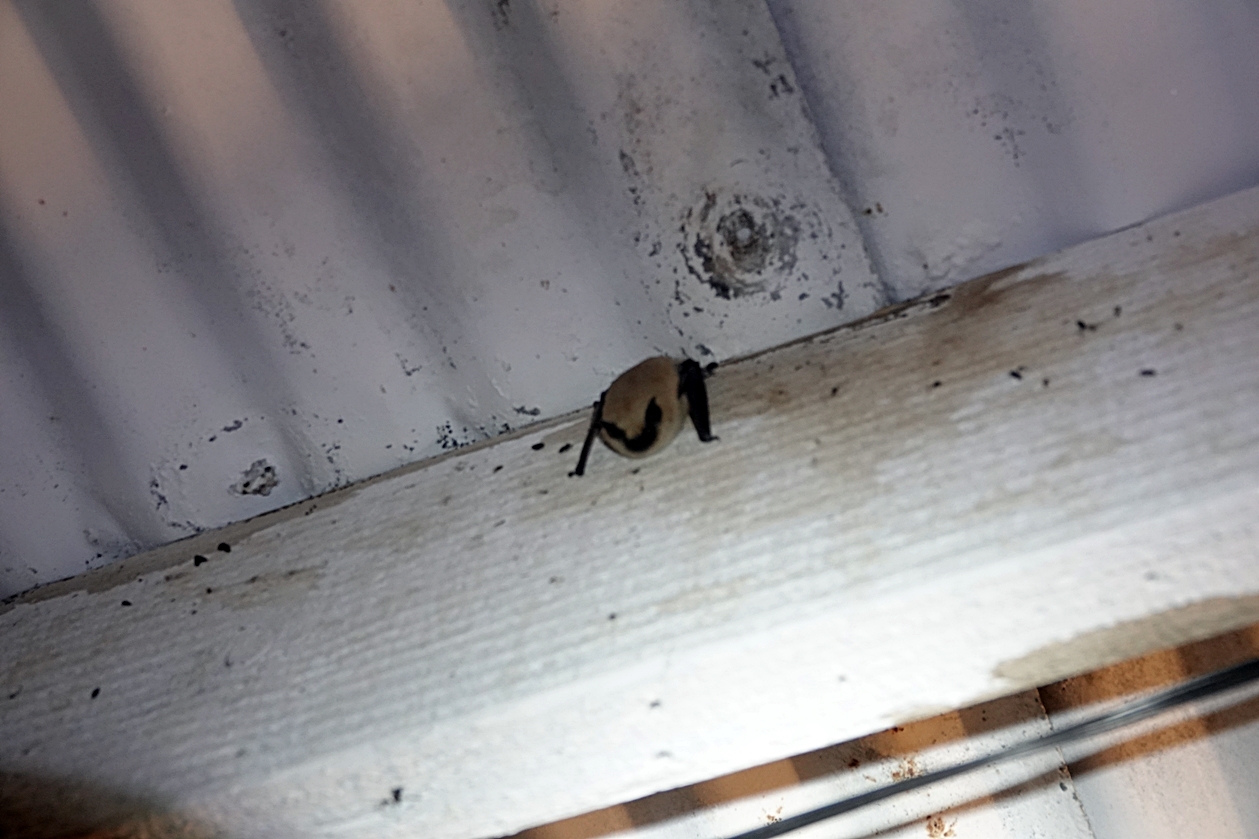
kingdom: Animalia
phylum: Chordata
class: Mammalia
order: Chiroptera
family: Vespertilionidae
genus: Myotis
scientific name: Myotis ciliolabrum
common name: Western small-footed myotis
